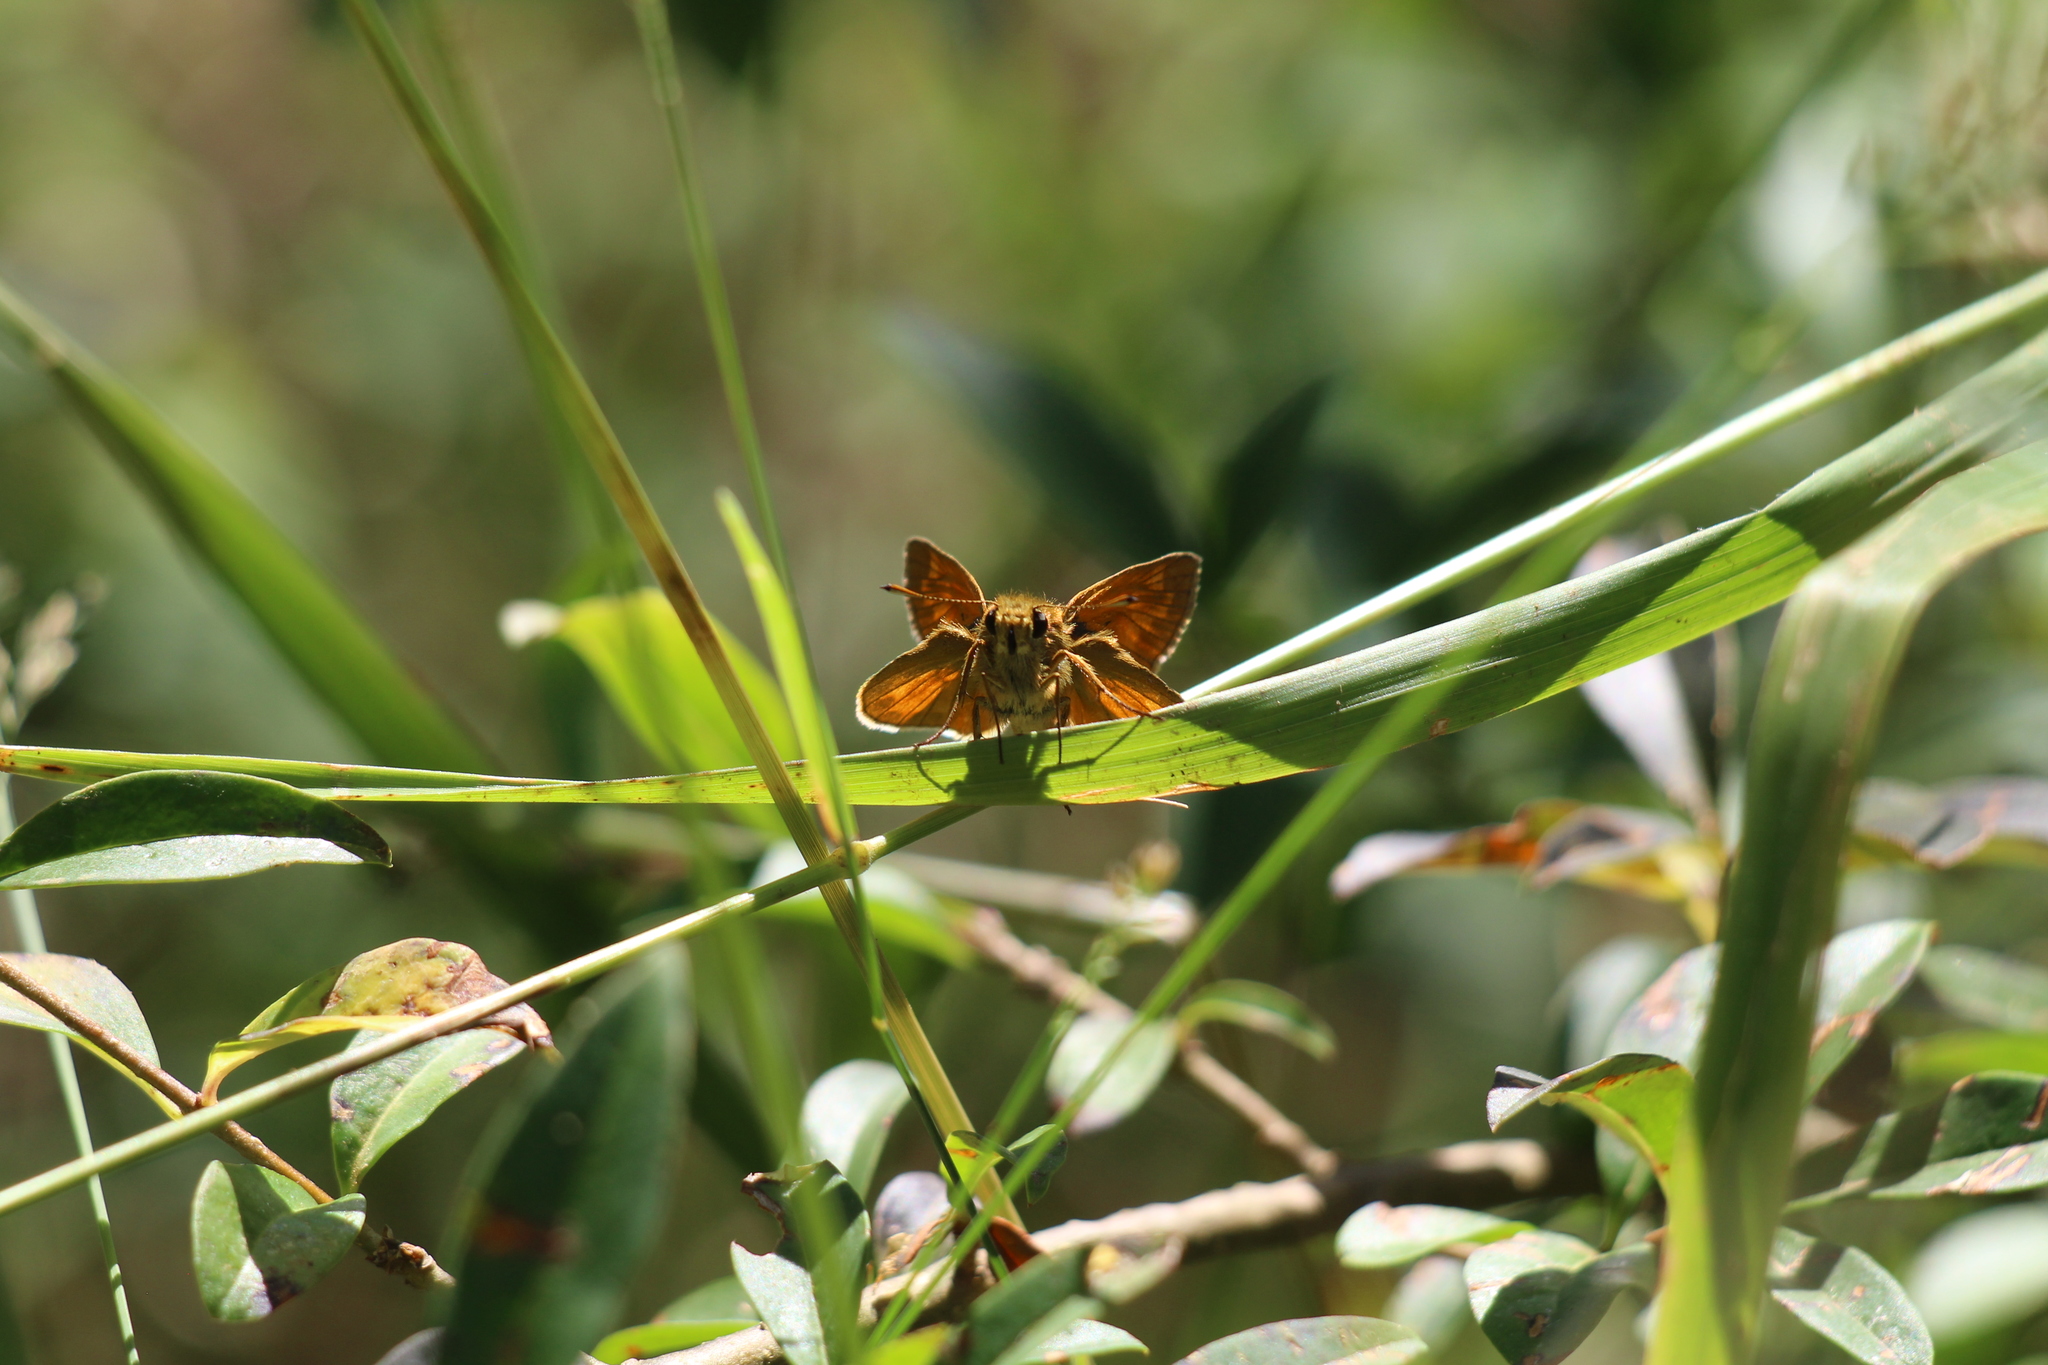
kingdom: Animalia
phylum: Arthropoda
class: Insecta
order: Lepidoptera
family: Hesperiidae
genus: Ochlodes
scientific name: Ochlodes venata
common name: Large skipper
